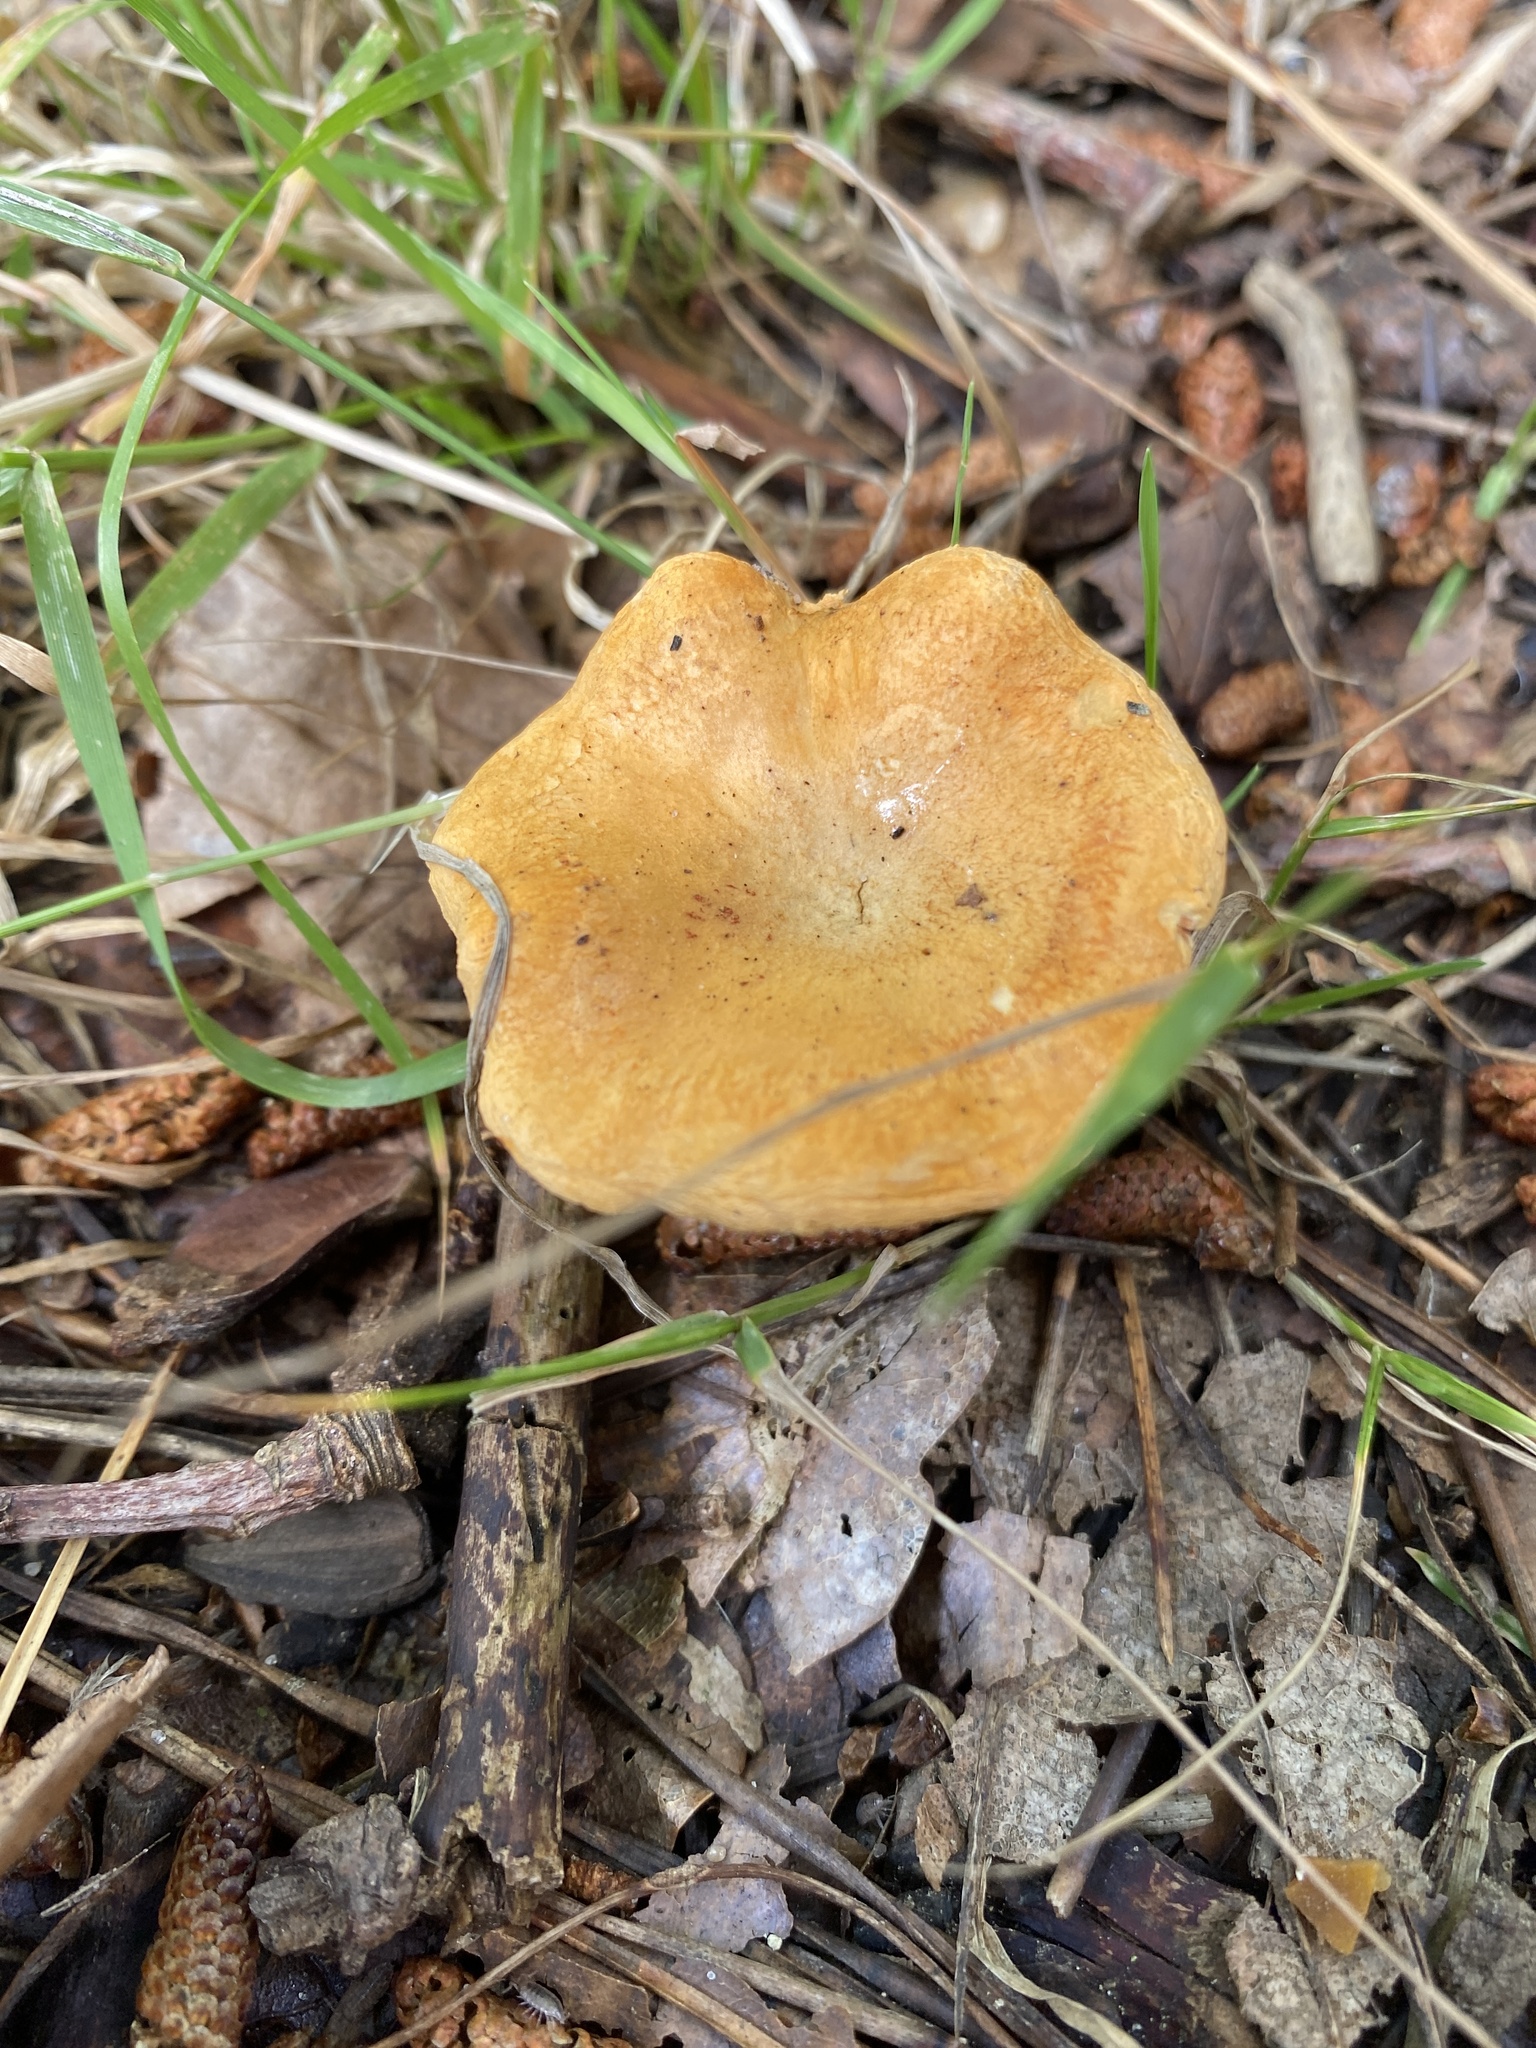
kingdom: Fungi
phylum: Basidiomycota
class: Agaricomycetes
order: Boletales
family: Hygrophoropsidaceae
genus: Hygrophoropsis
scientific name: Hygrophoropsis aurantiaca
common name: False chanterelle
